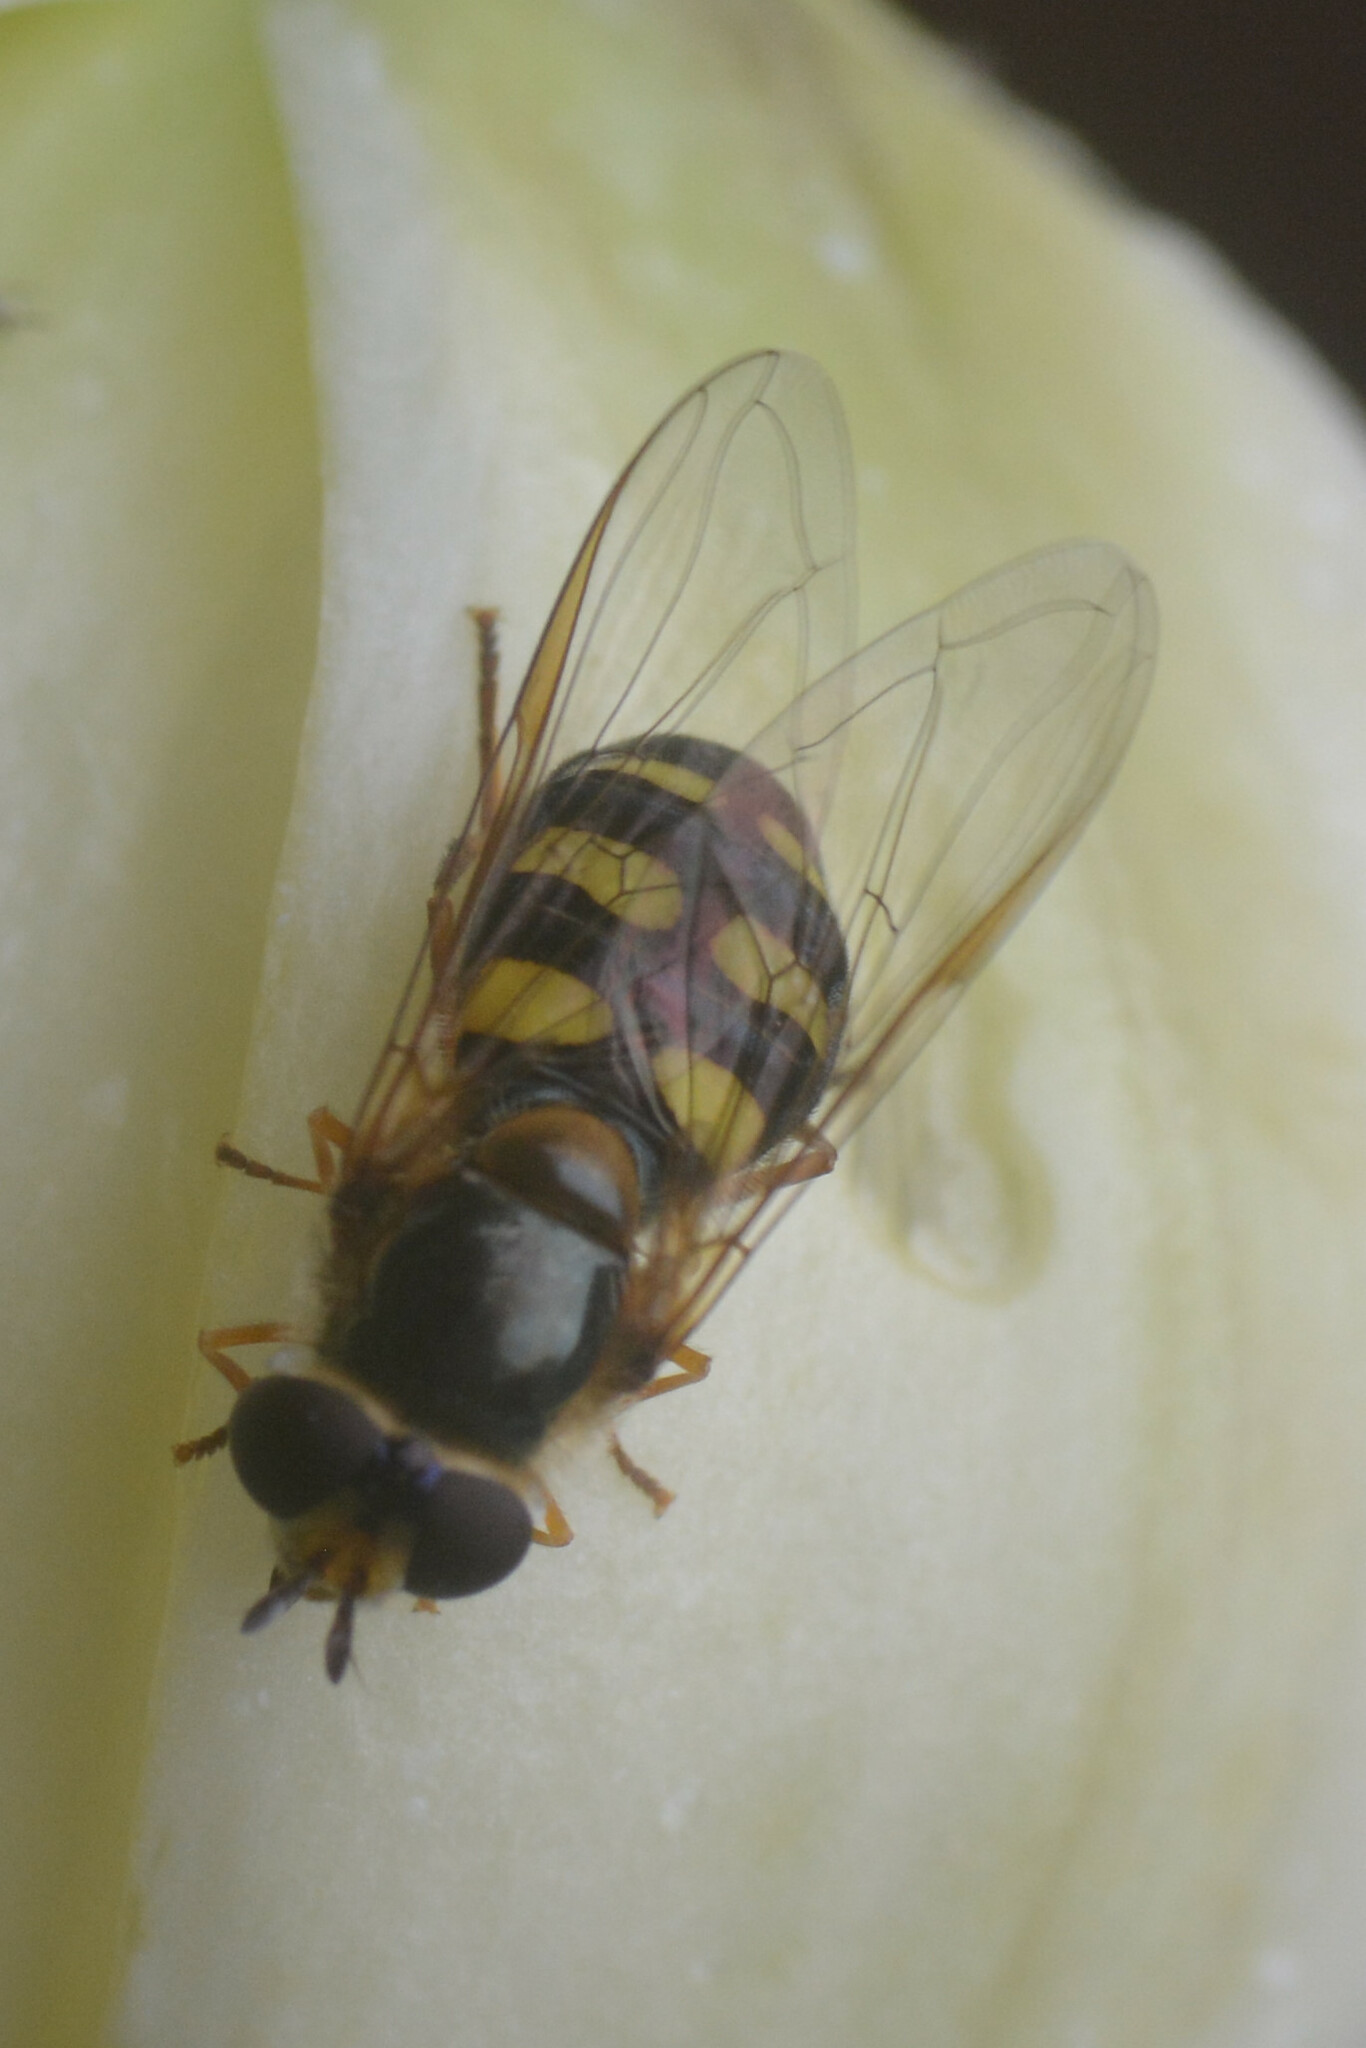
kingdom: Animalia
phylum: Arthropoda
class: Insecta
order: Diptera
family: Syrphidae
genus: Eupeodes
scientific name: Eupeodes luniger
